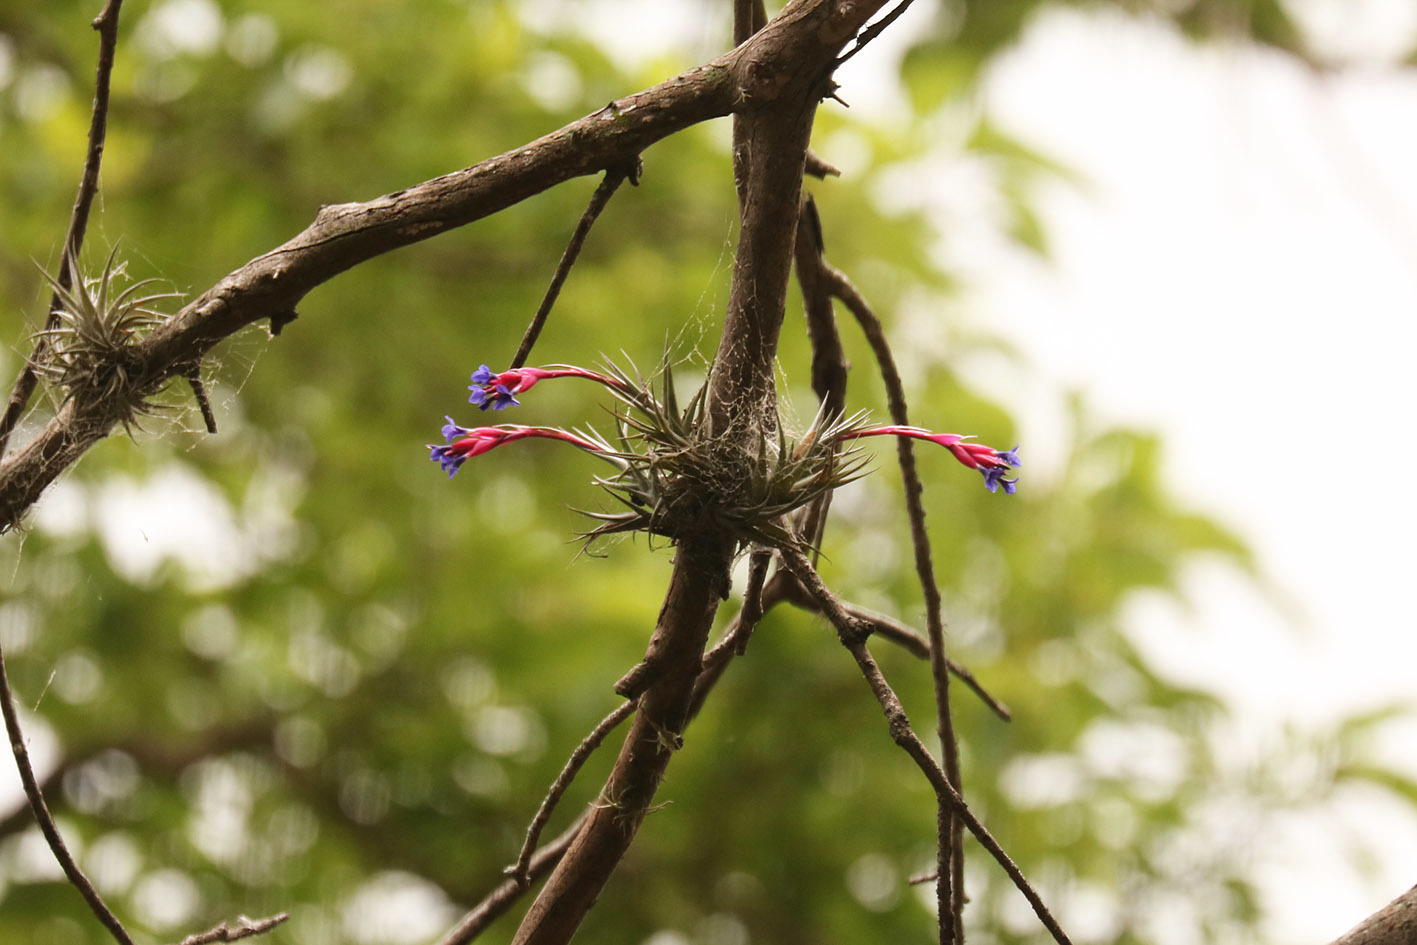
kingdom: Plantae
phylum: Tracheophyta
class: Liliopsida
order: Poales
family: Bromeliaceae
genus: Tillandsia
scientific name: Tillandsia aeranthos
